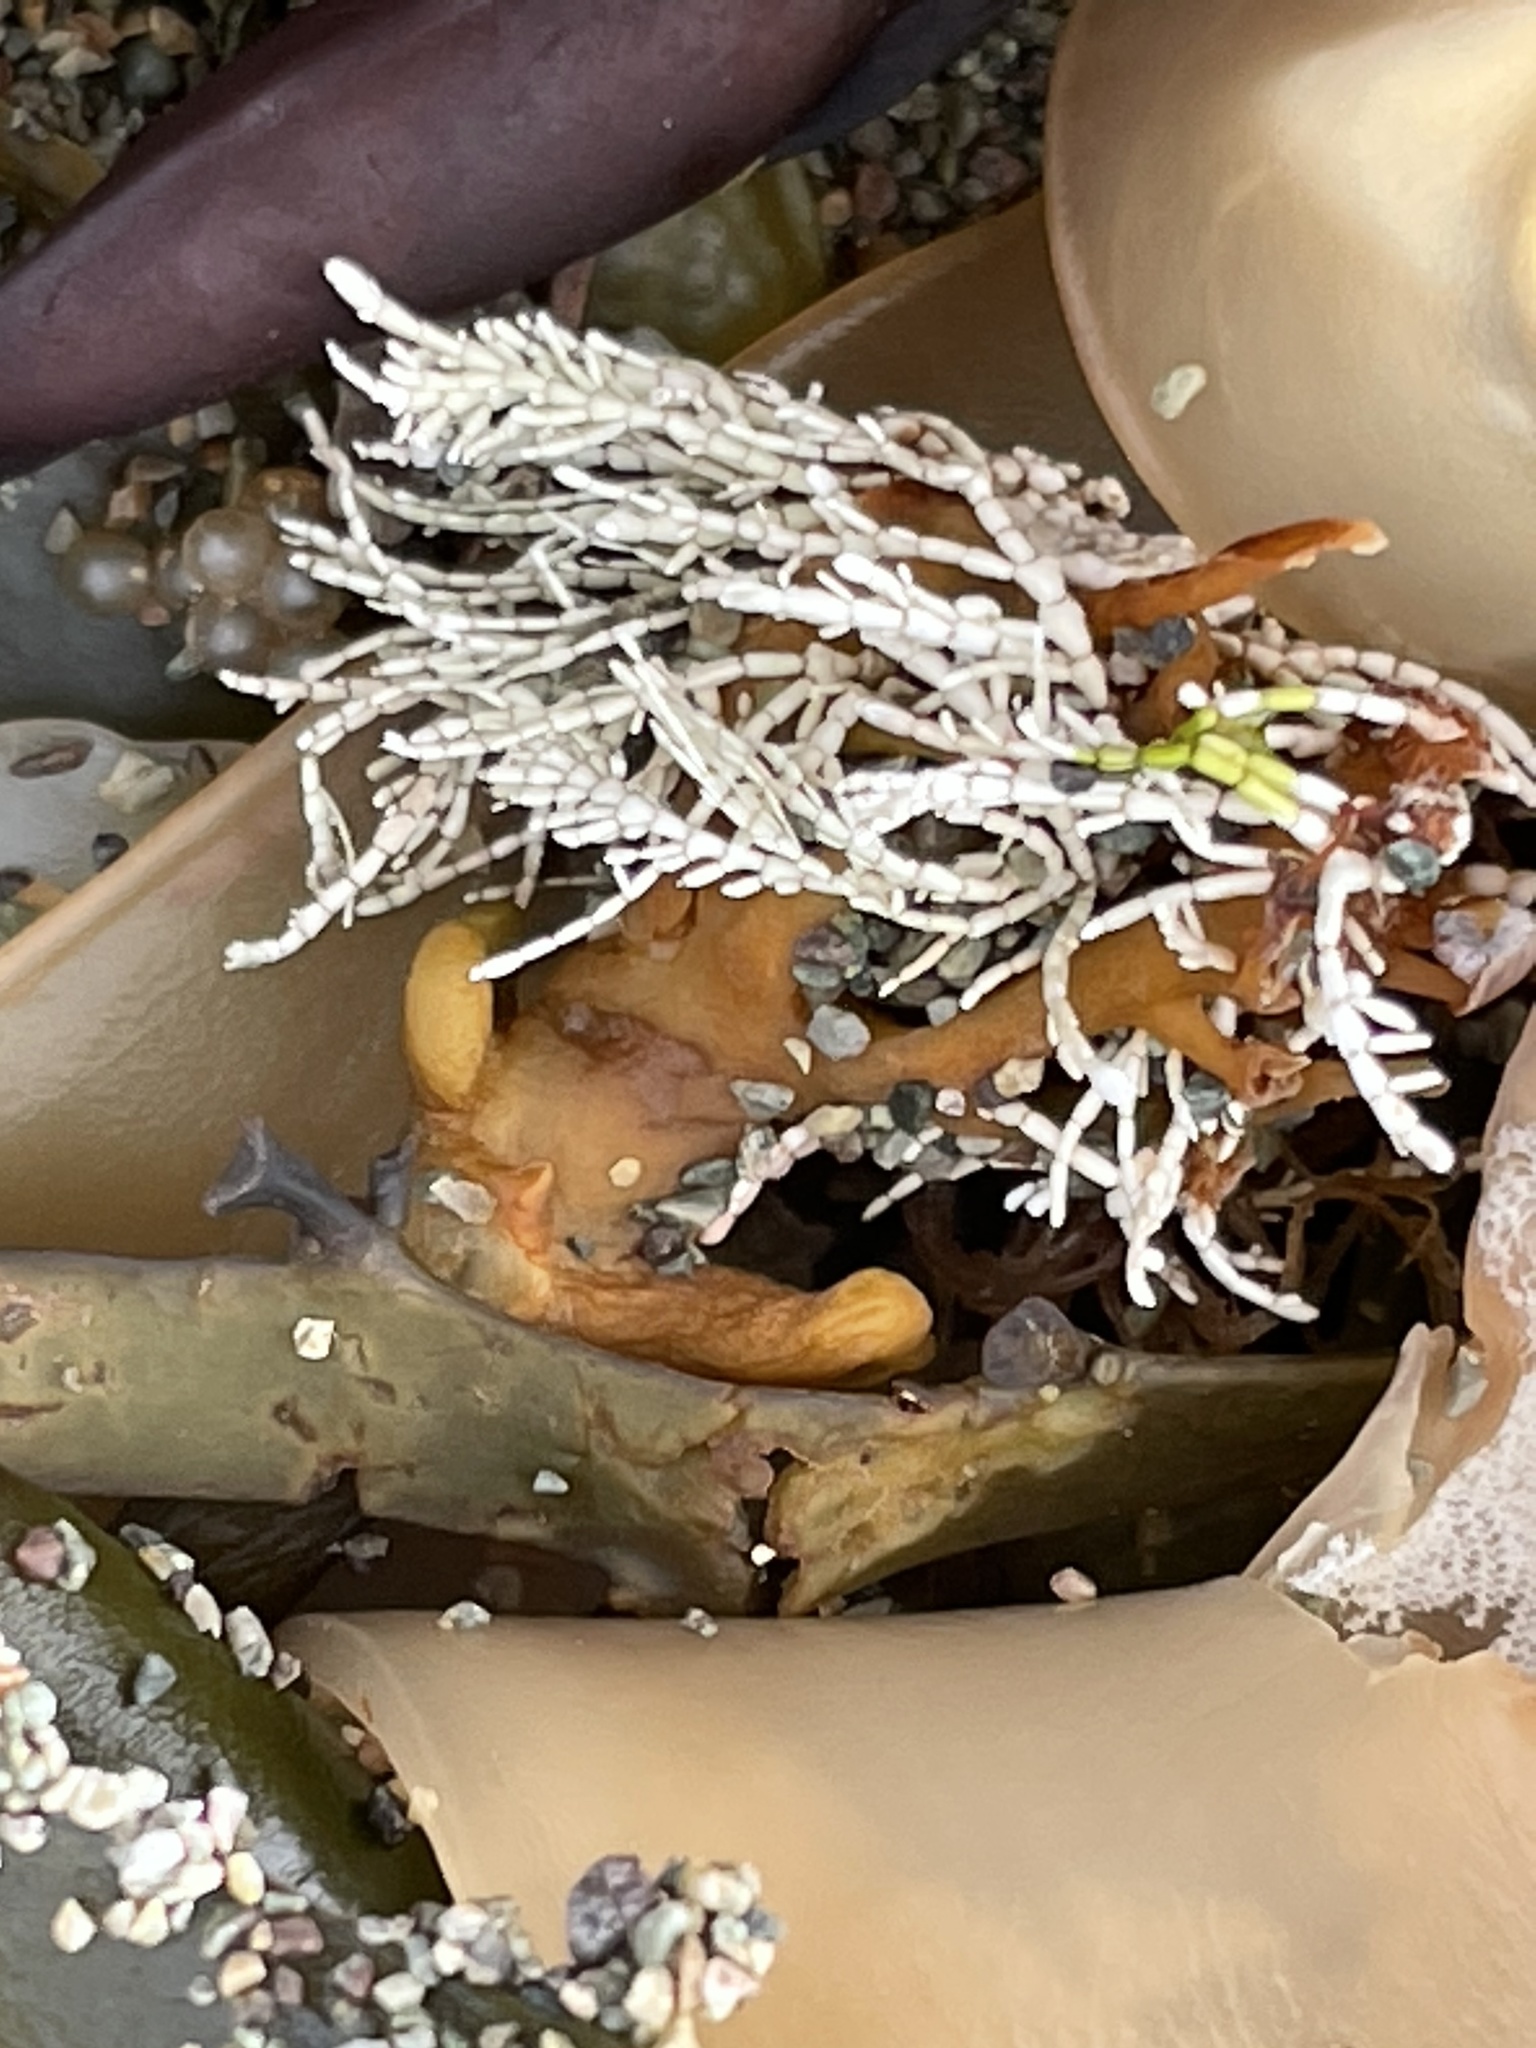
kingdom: Plantae
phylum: Rhodophyta
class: Florideophyceae
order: Corallinales
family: Corallinaceae
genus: Corallina
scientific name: Corallina officinalis
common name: Coral weed
